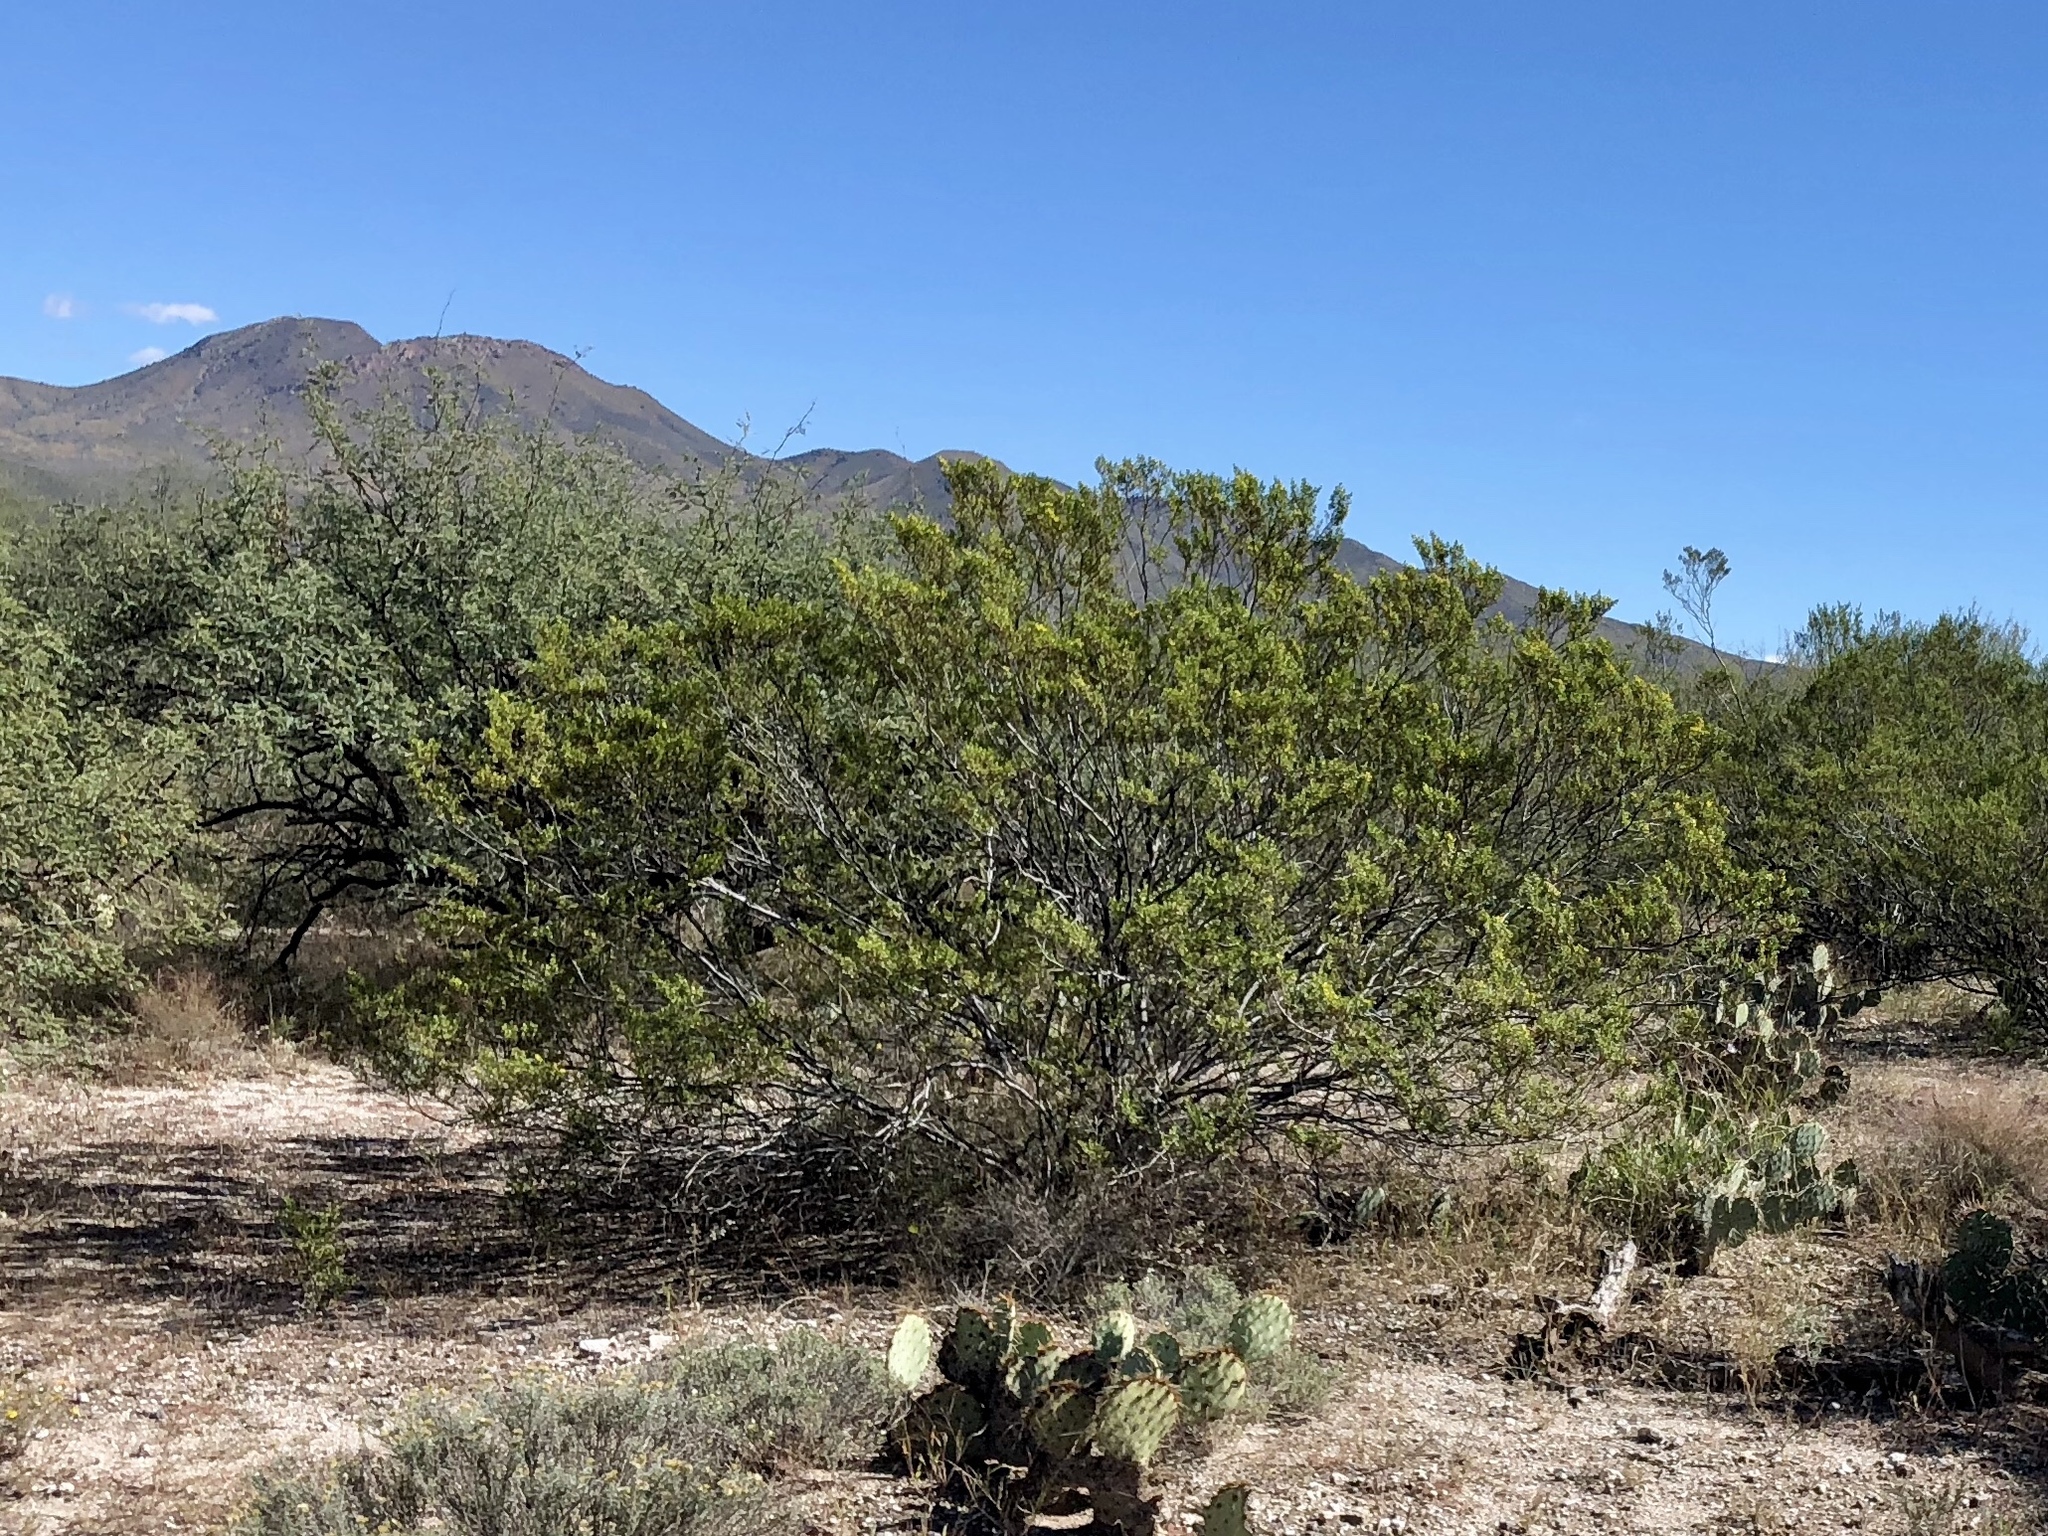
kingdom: Plantae
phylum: Tracheophyta
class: Magnoliopsida
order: Zygophyllales
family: Zygophyllaceae
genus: Larrea
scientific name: Larrea tridentata
